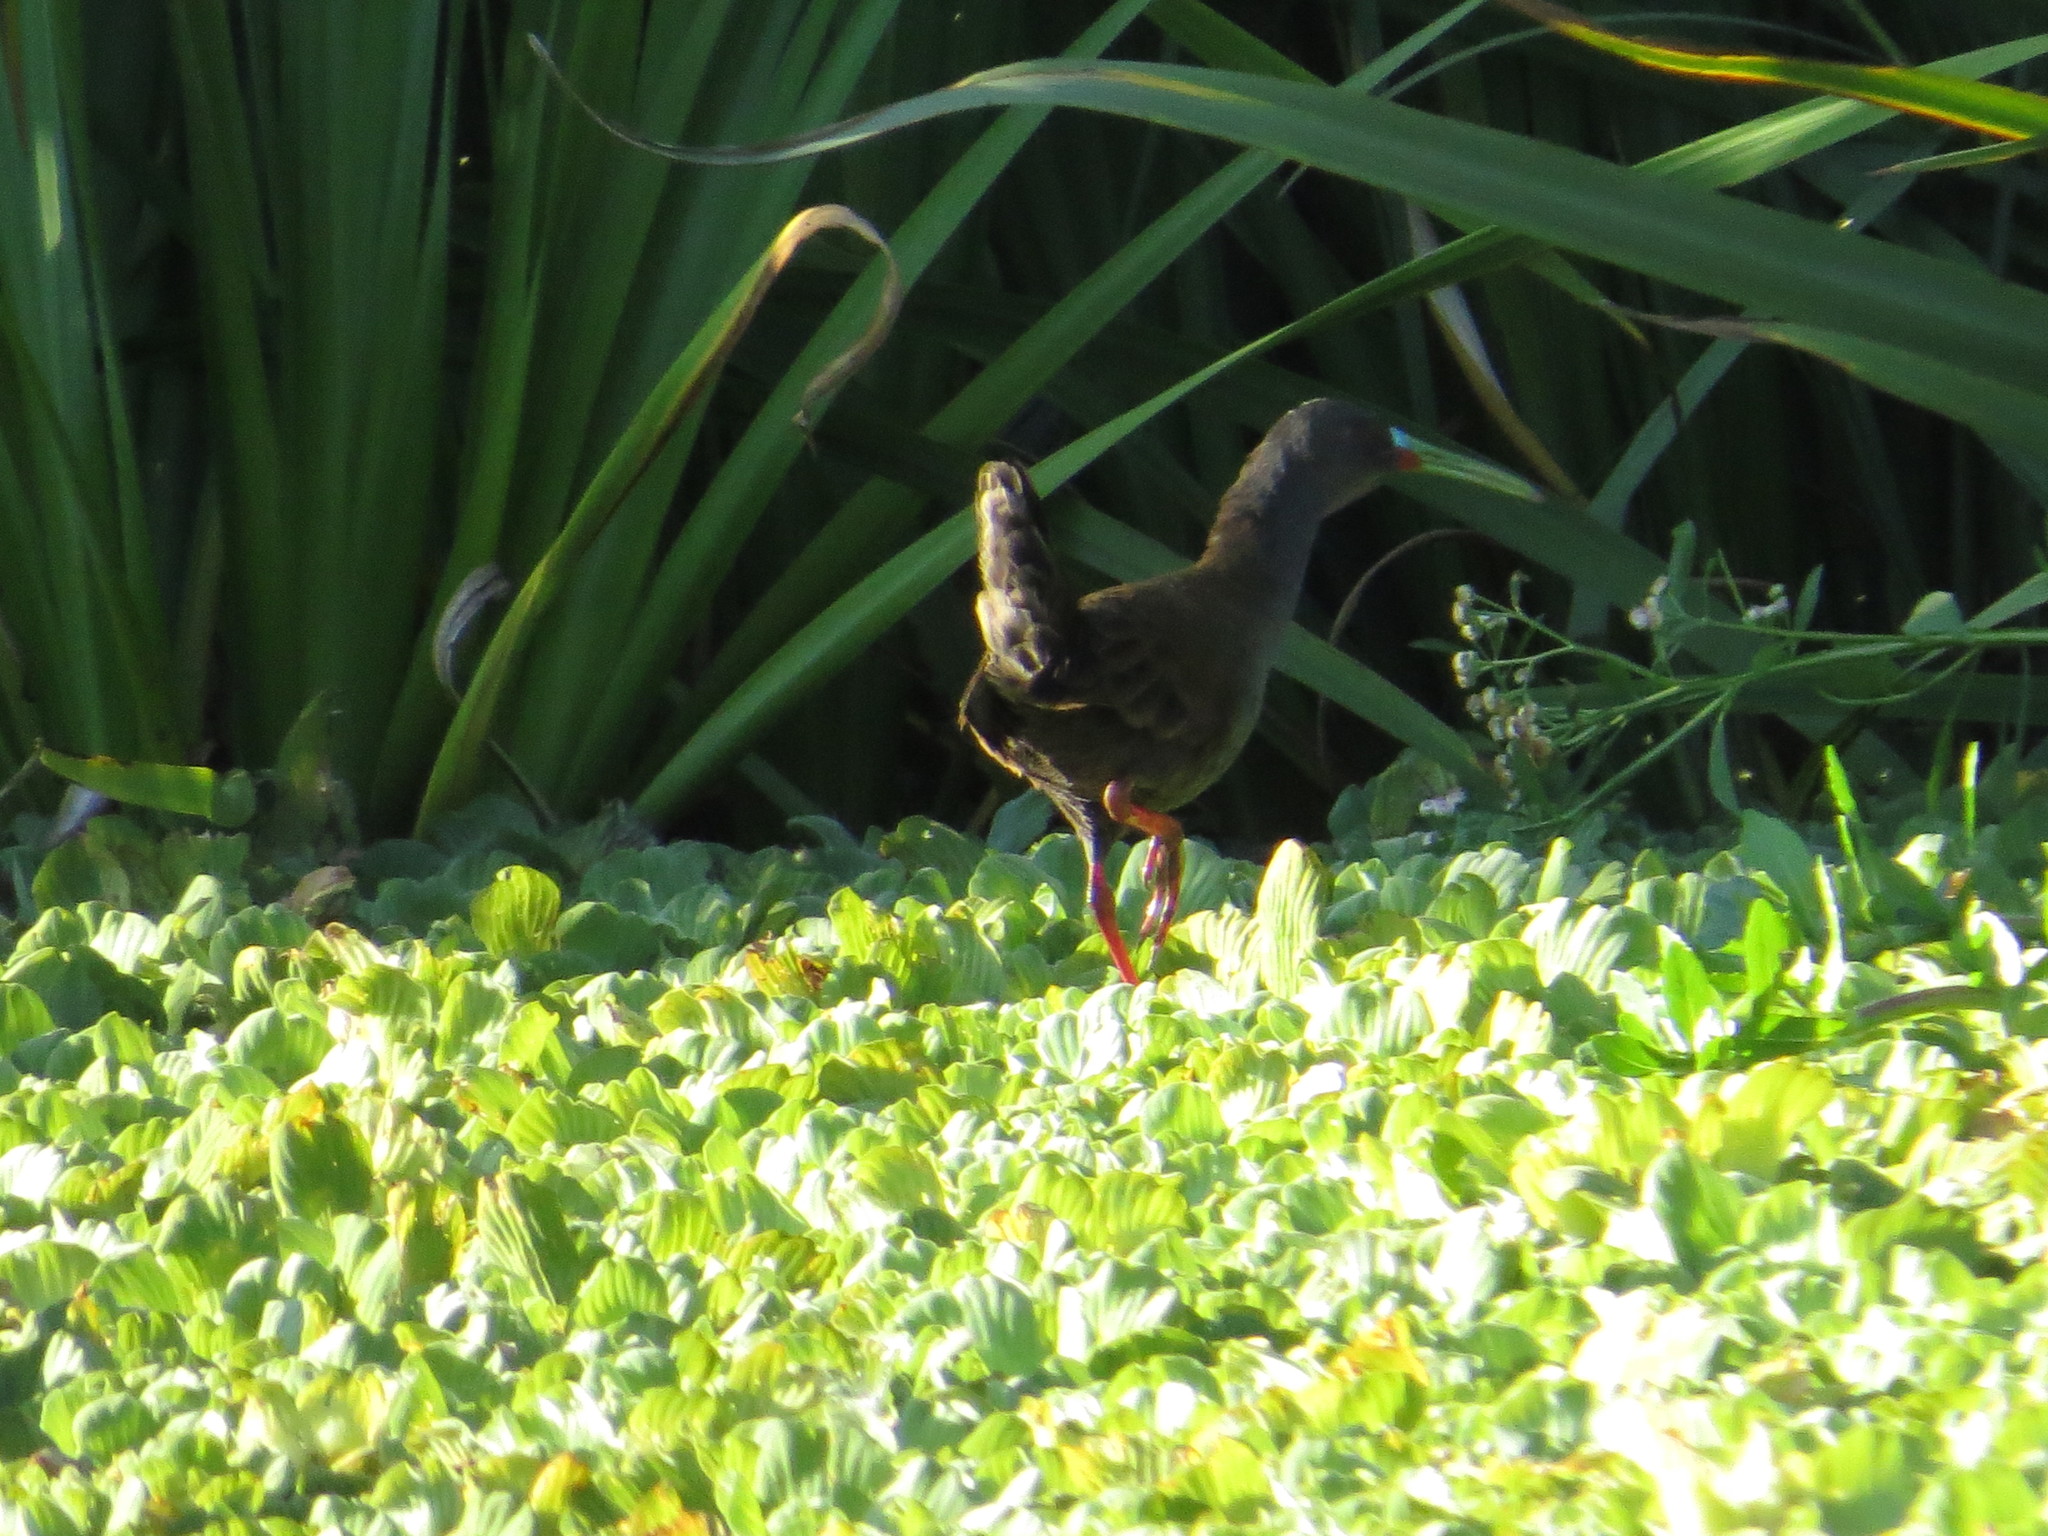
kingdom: Animalia
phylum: Chordata
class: Aves
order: Gruiformes
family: Rallidae
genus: Pardirallus
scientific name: Pardirallus sanguinolentus
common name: Plumbeous rail
